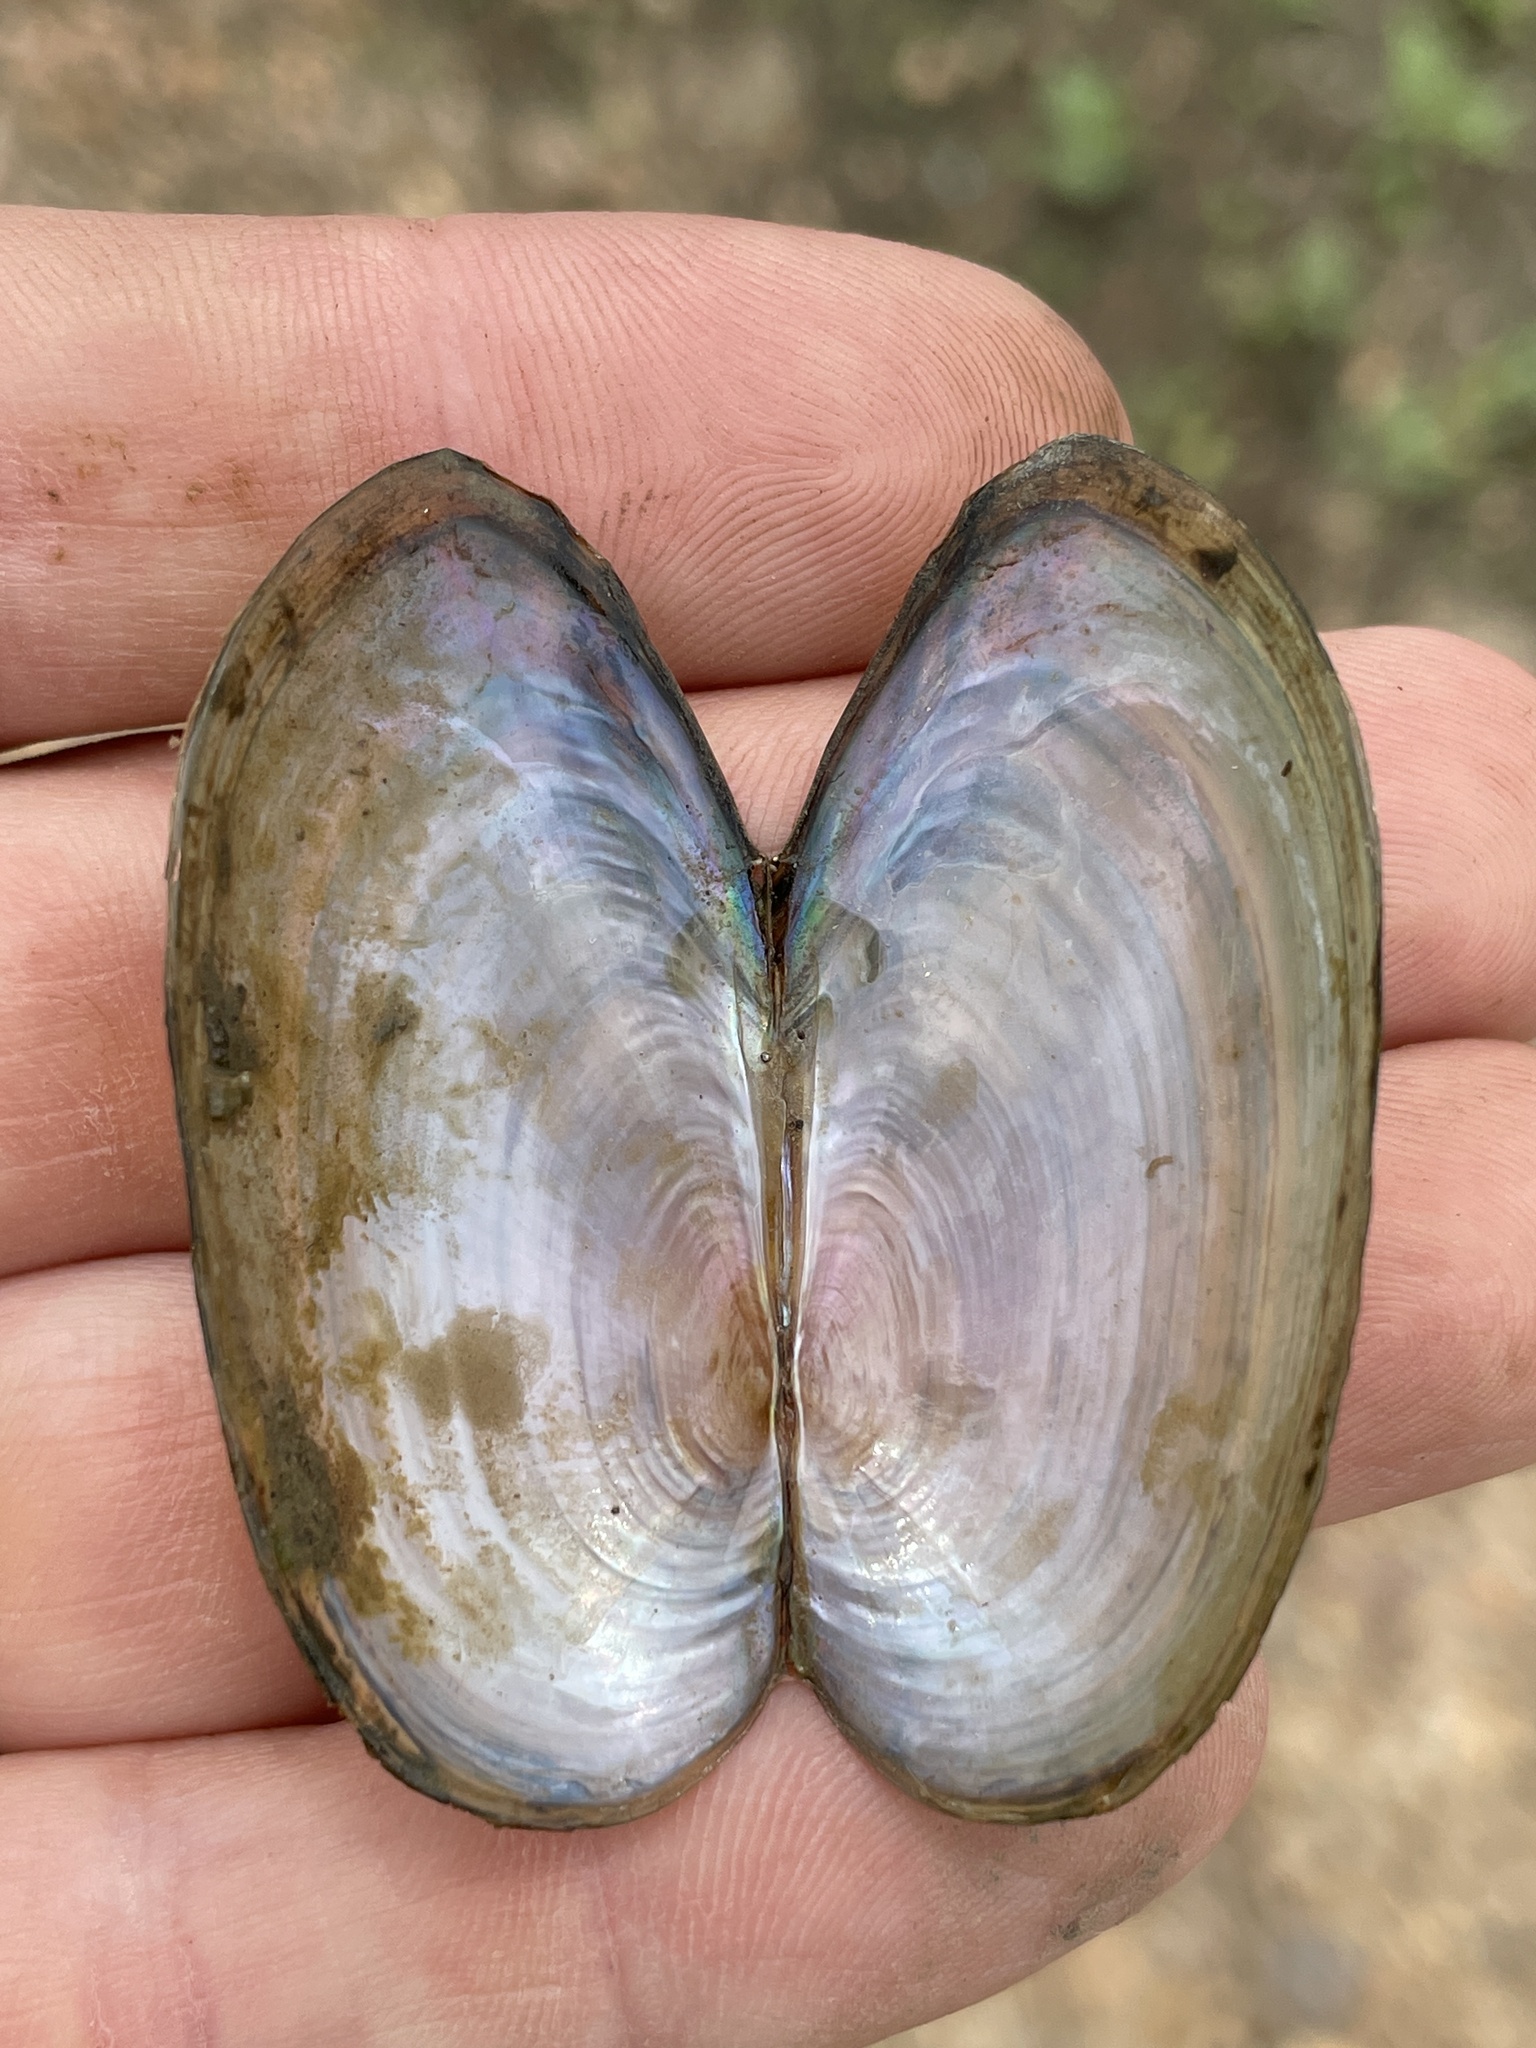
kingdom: Animalia
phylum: Mollusca
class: Bivalvia
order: Unionida
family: Unionidae
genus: Utterbackia
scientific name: Utterbackia imbecillis
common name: Paper pondshell
